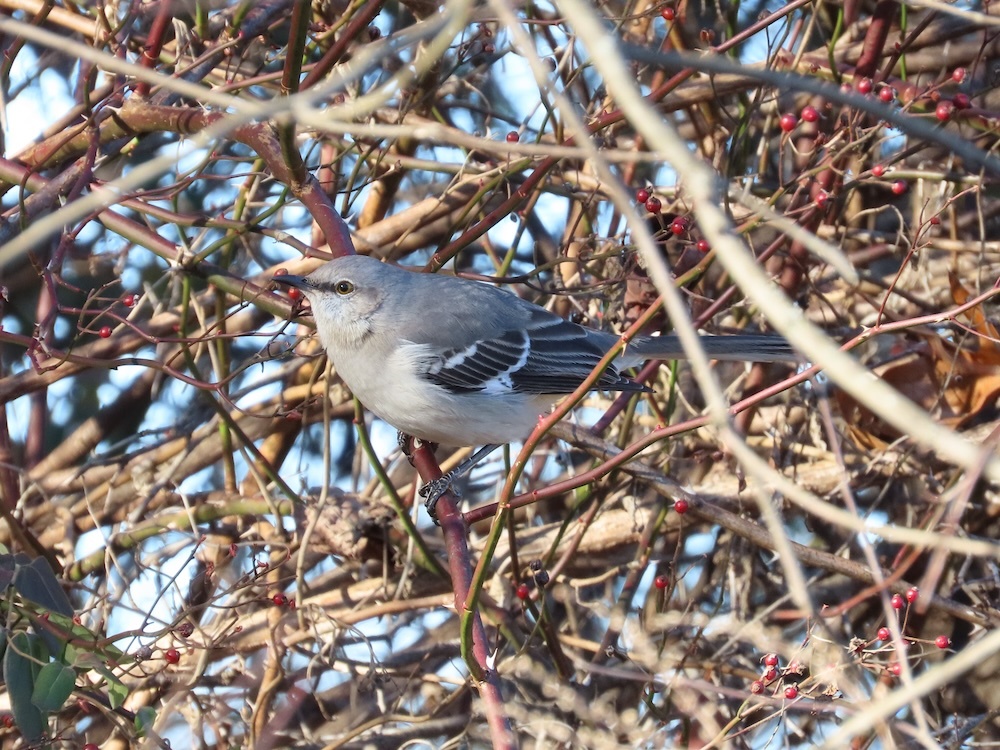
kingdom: Animalia
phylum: Chordata
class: Aves
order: Passeriformes
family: Mimidae
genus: Mimus
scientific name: Mimus polyglottos
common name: Northern mockingbird
